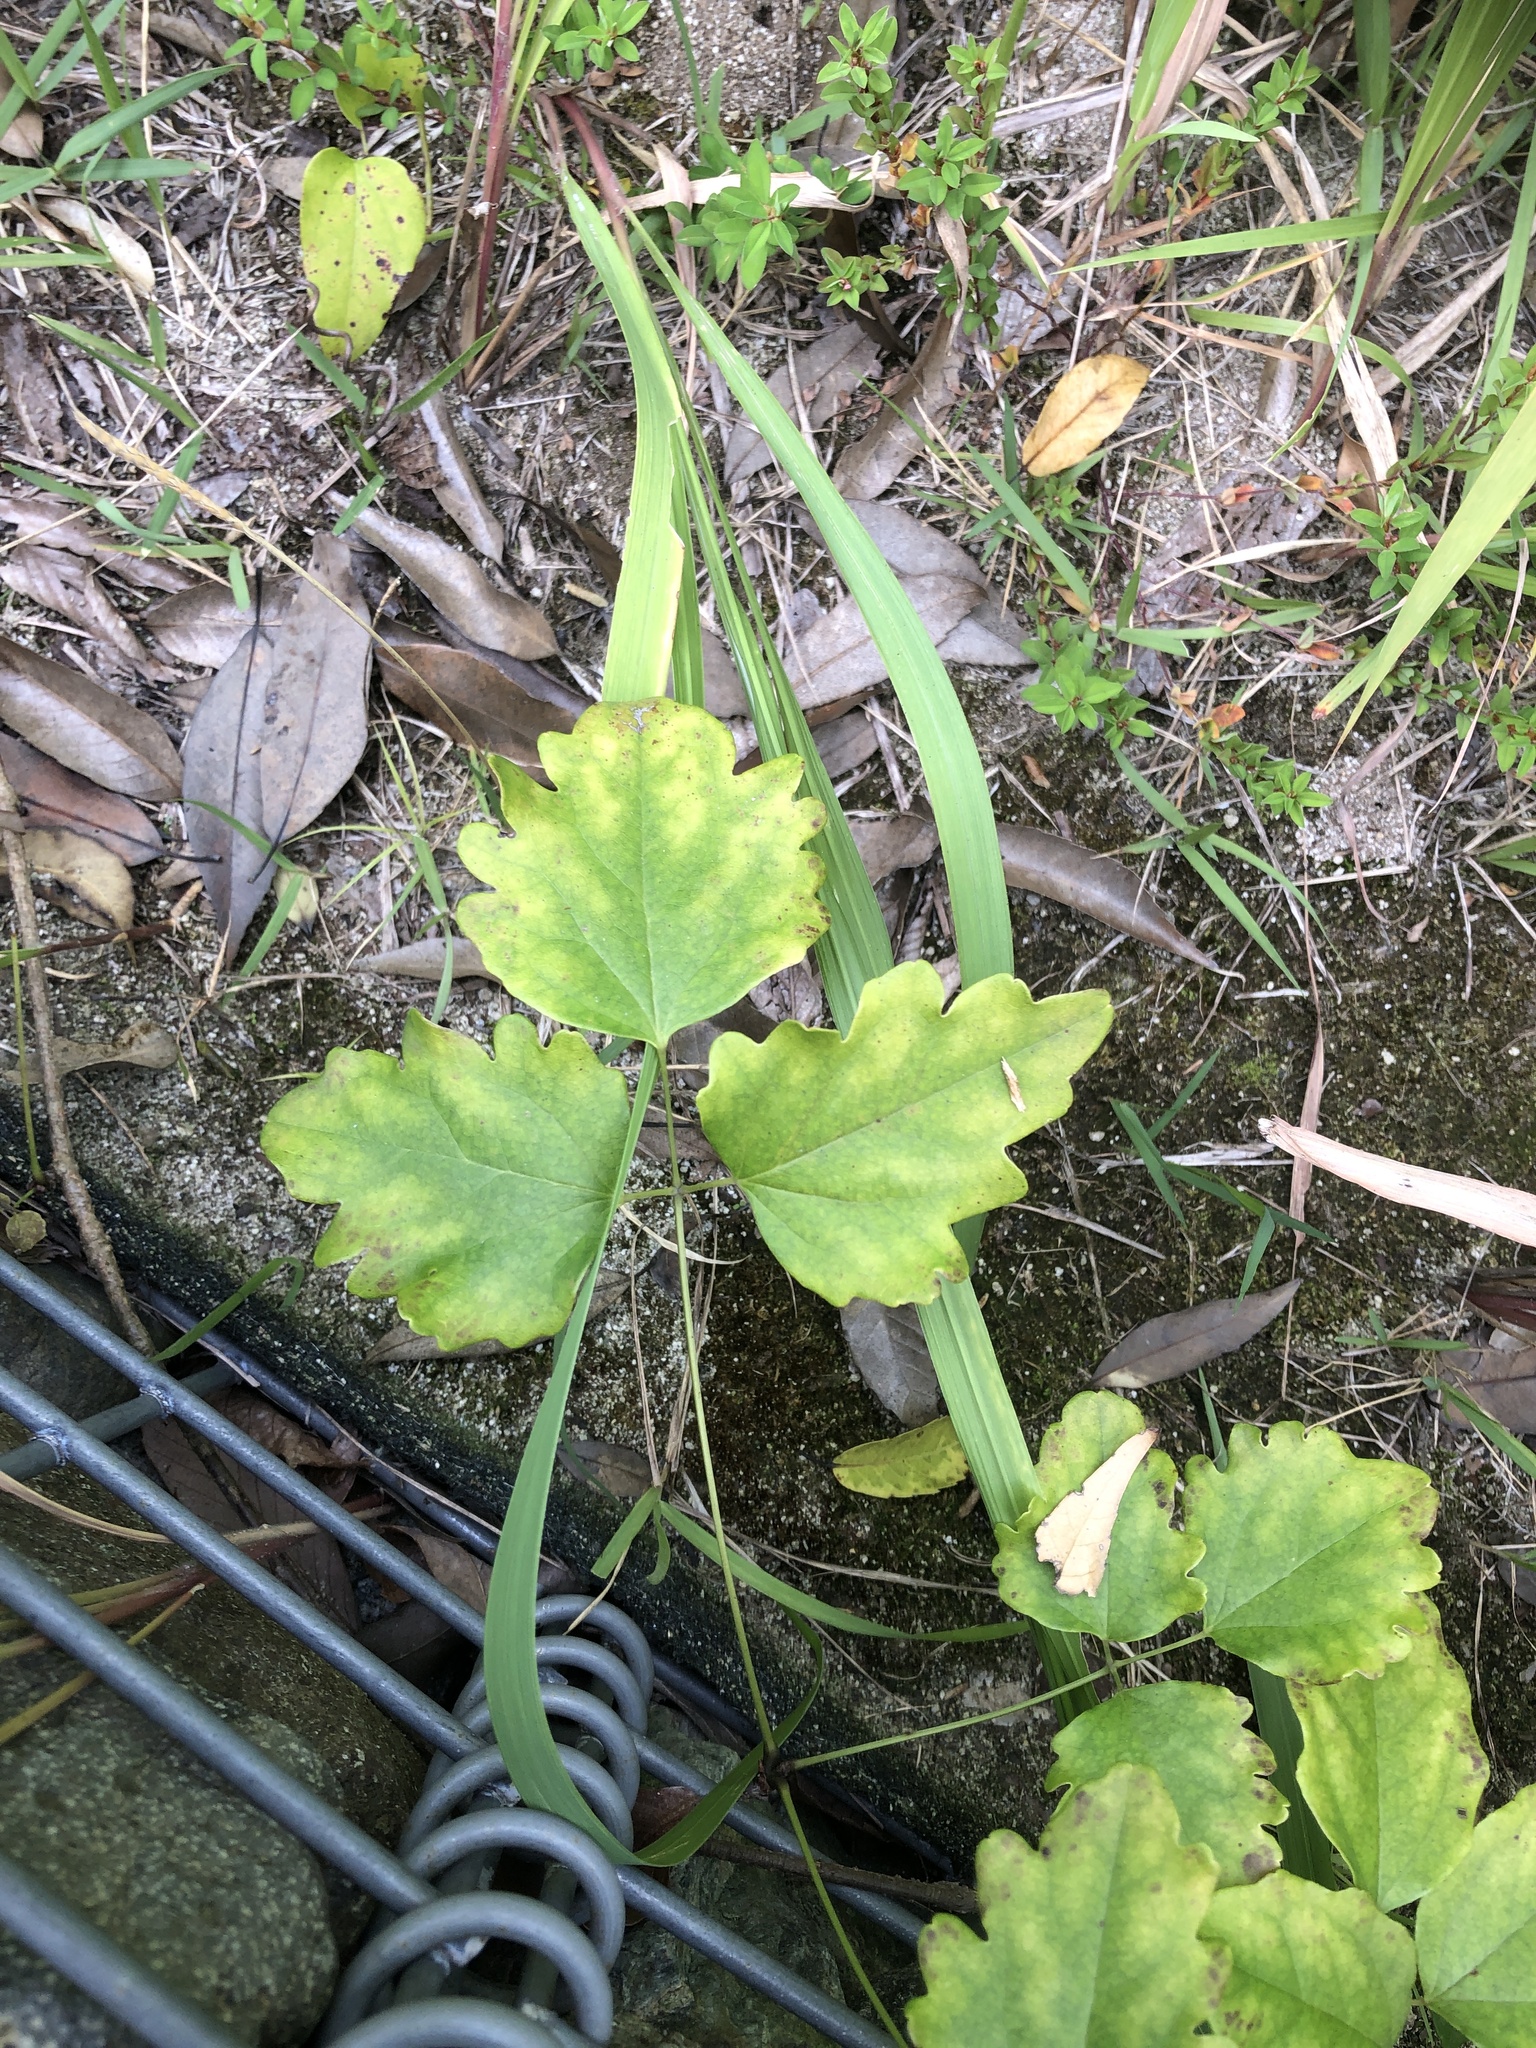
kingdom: Plantae
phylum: Tracheophyta
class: Magnoliopsida
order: Ranunculales
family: Lardizabalaceae
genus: Akebia
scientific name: Akebia trifoliata
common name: Chocolate-vine
